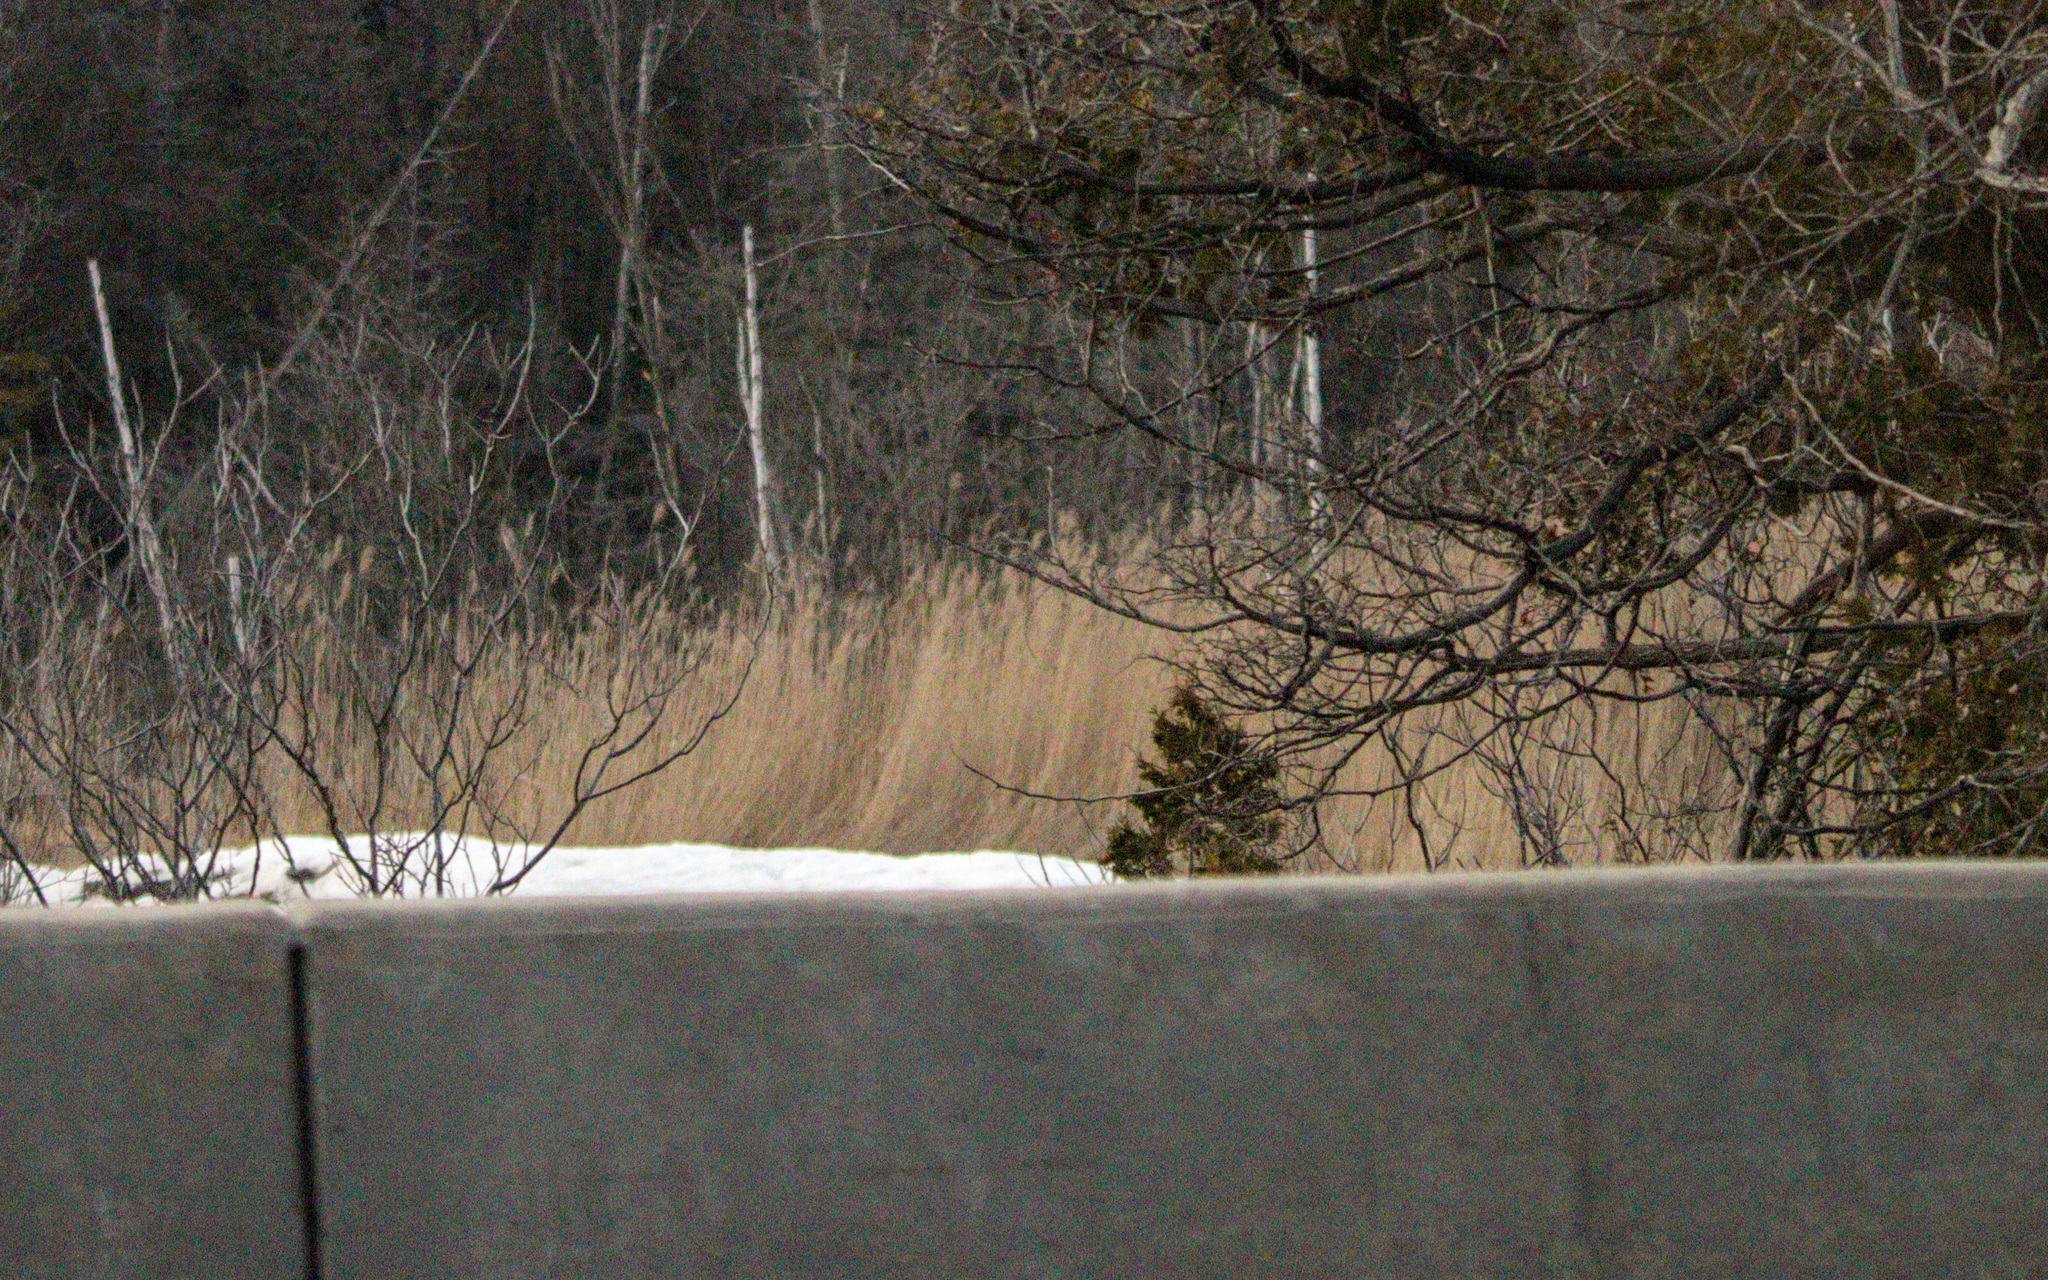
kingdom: Plantae
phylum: Tracheophyta
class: Liliopsida
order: Poales
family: Poaceae
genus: Phragmites
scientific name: Phragmites australis
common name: Common reed
